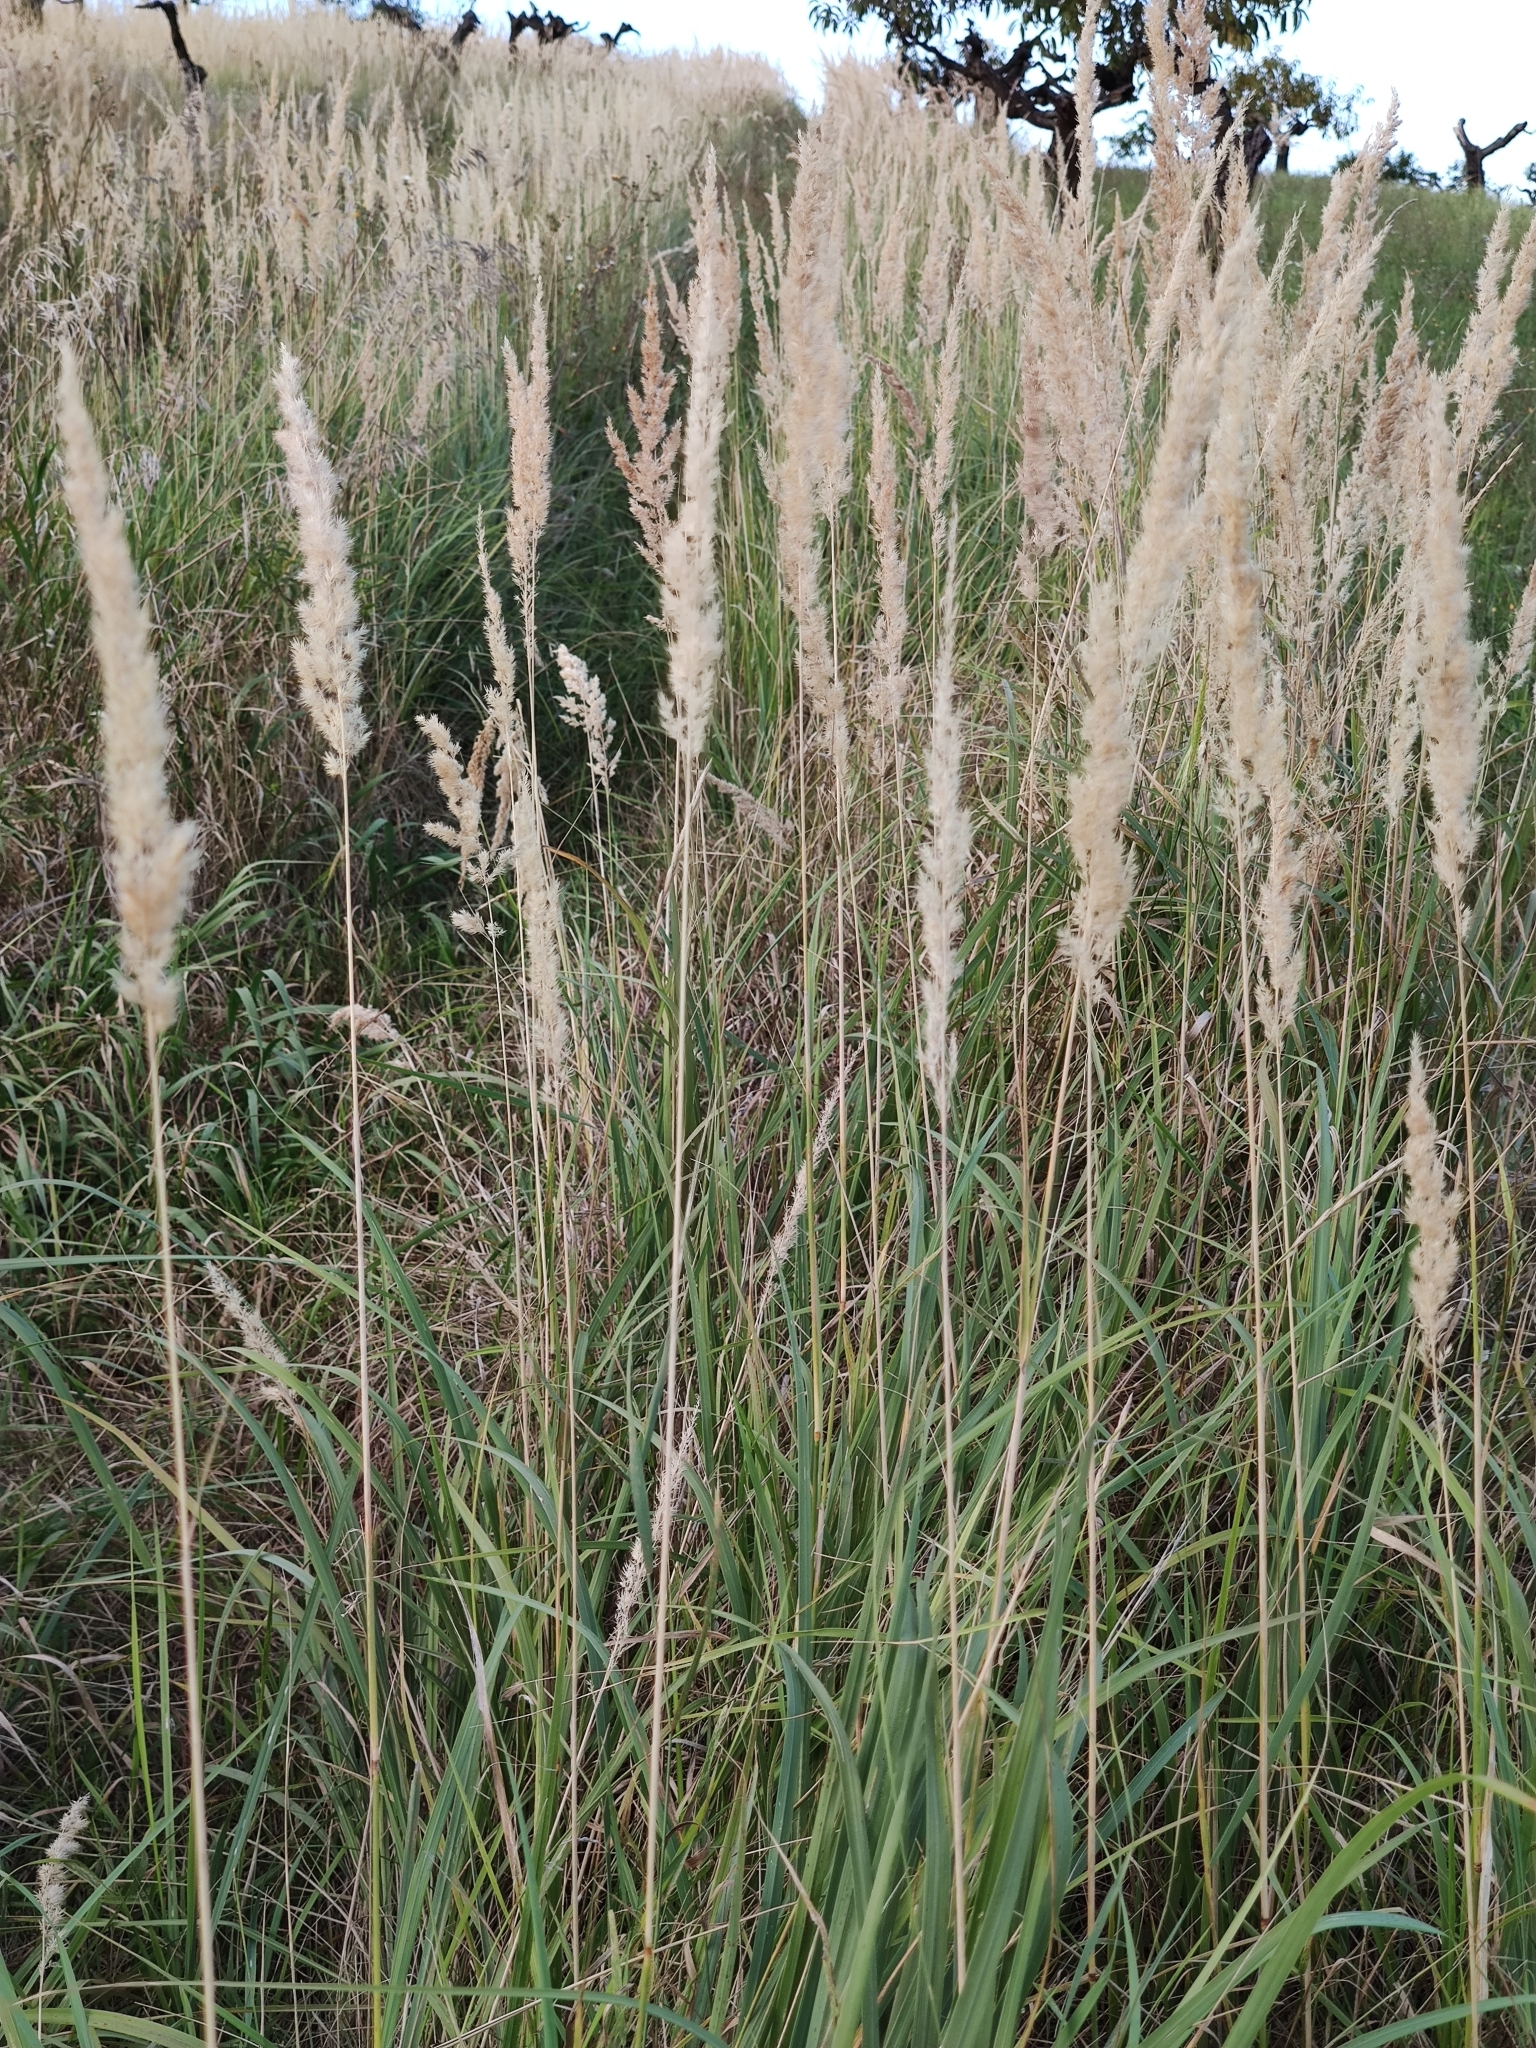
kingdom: Plantae
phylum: Tracheophyta
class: Liliopsida
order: Poales
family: Poaceae
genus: Calamagrostis
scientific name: Calamagrostis epigejos
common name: Wood small-reed
